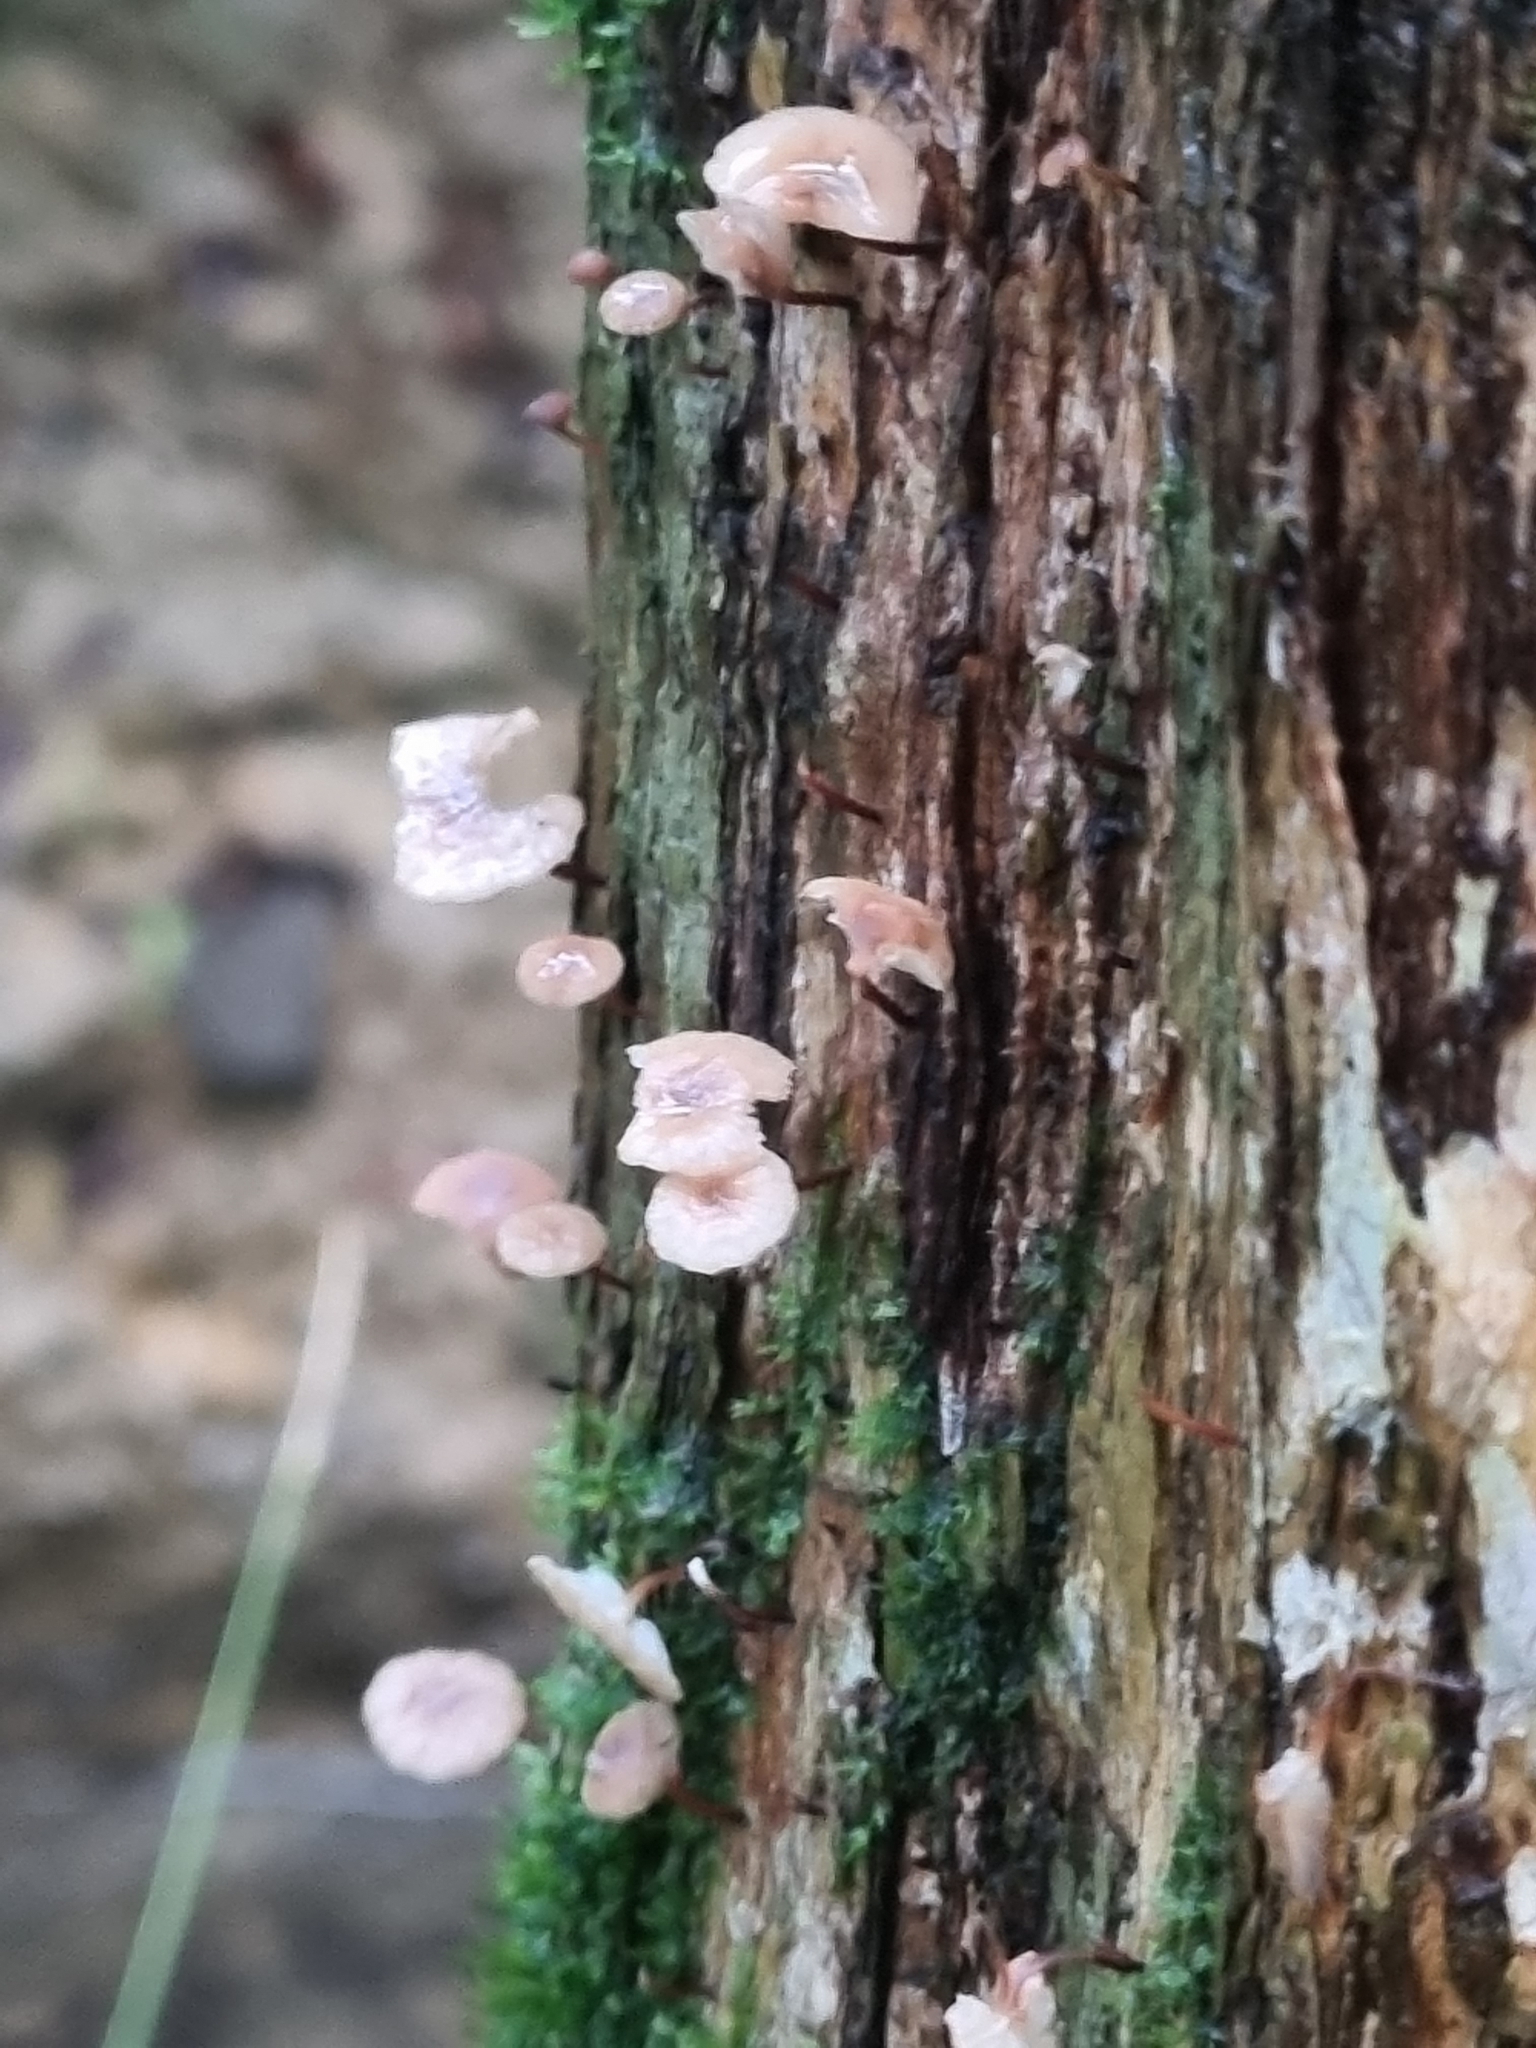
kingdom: Fungi
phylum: Basidiomycota
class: Agaricomycetes
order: Agaricales
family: Omphalotaceae
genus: Mycetinis
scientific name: Mycetinis curraniae
